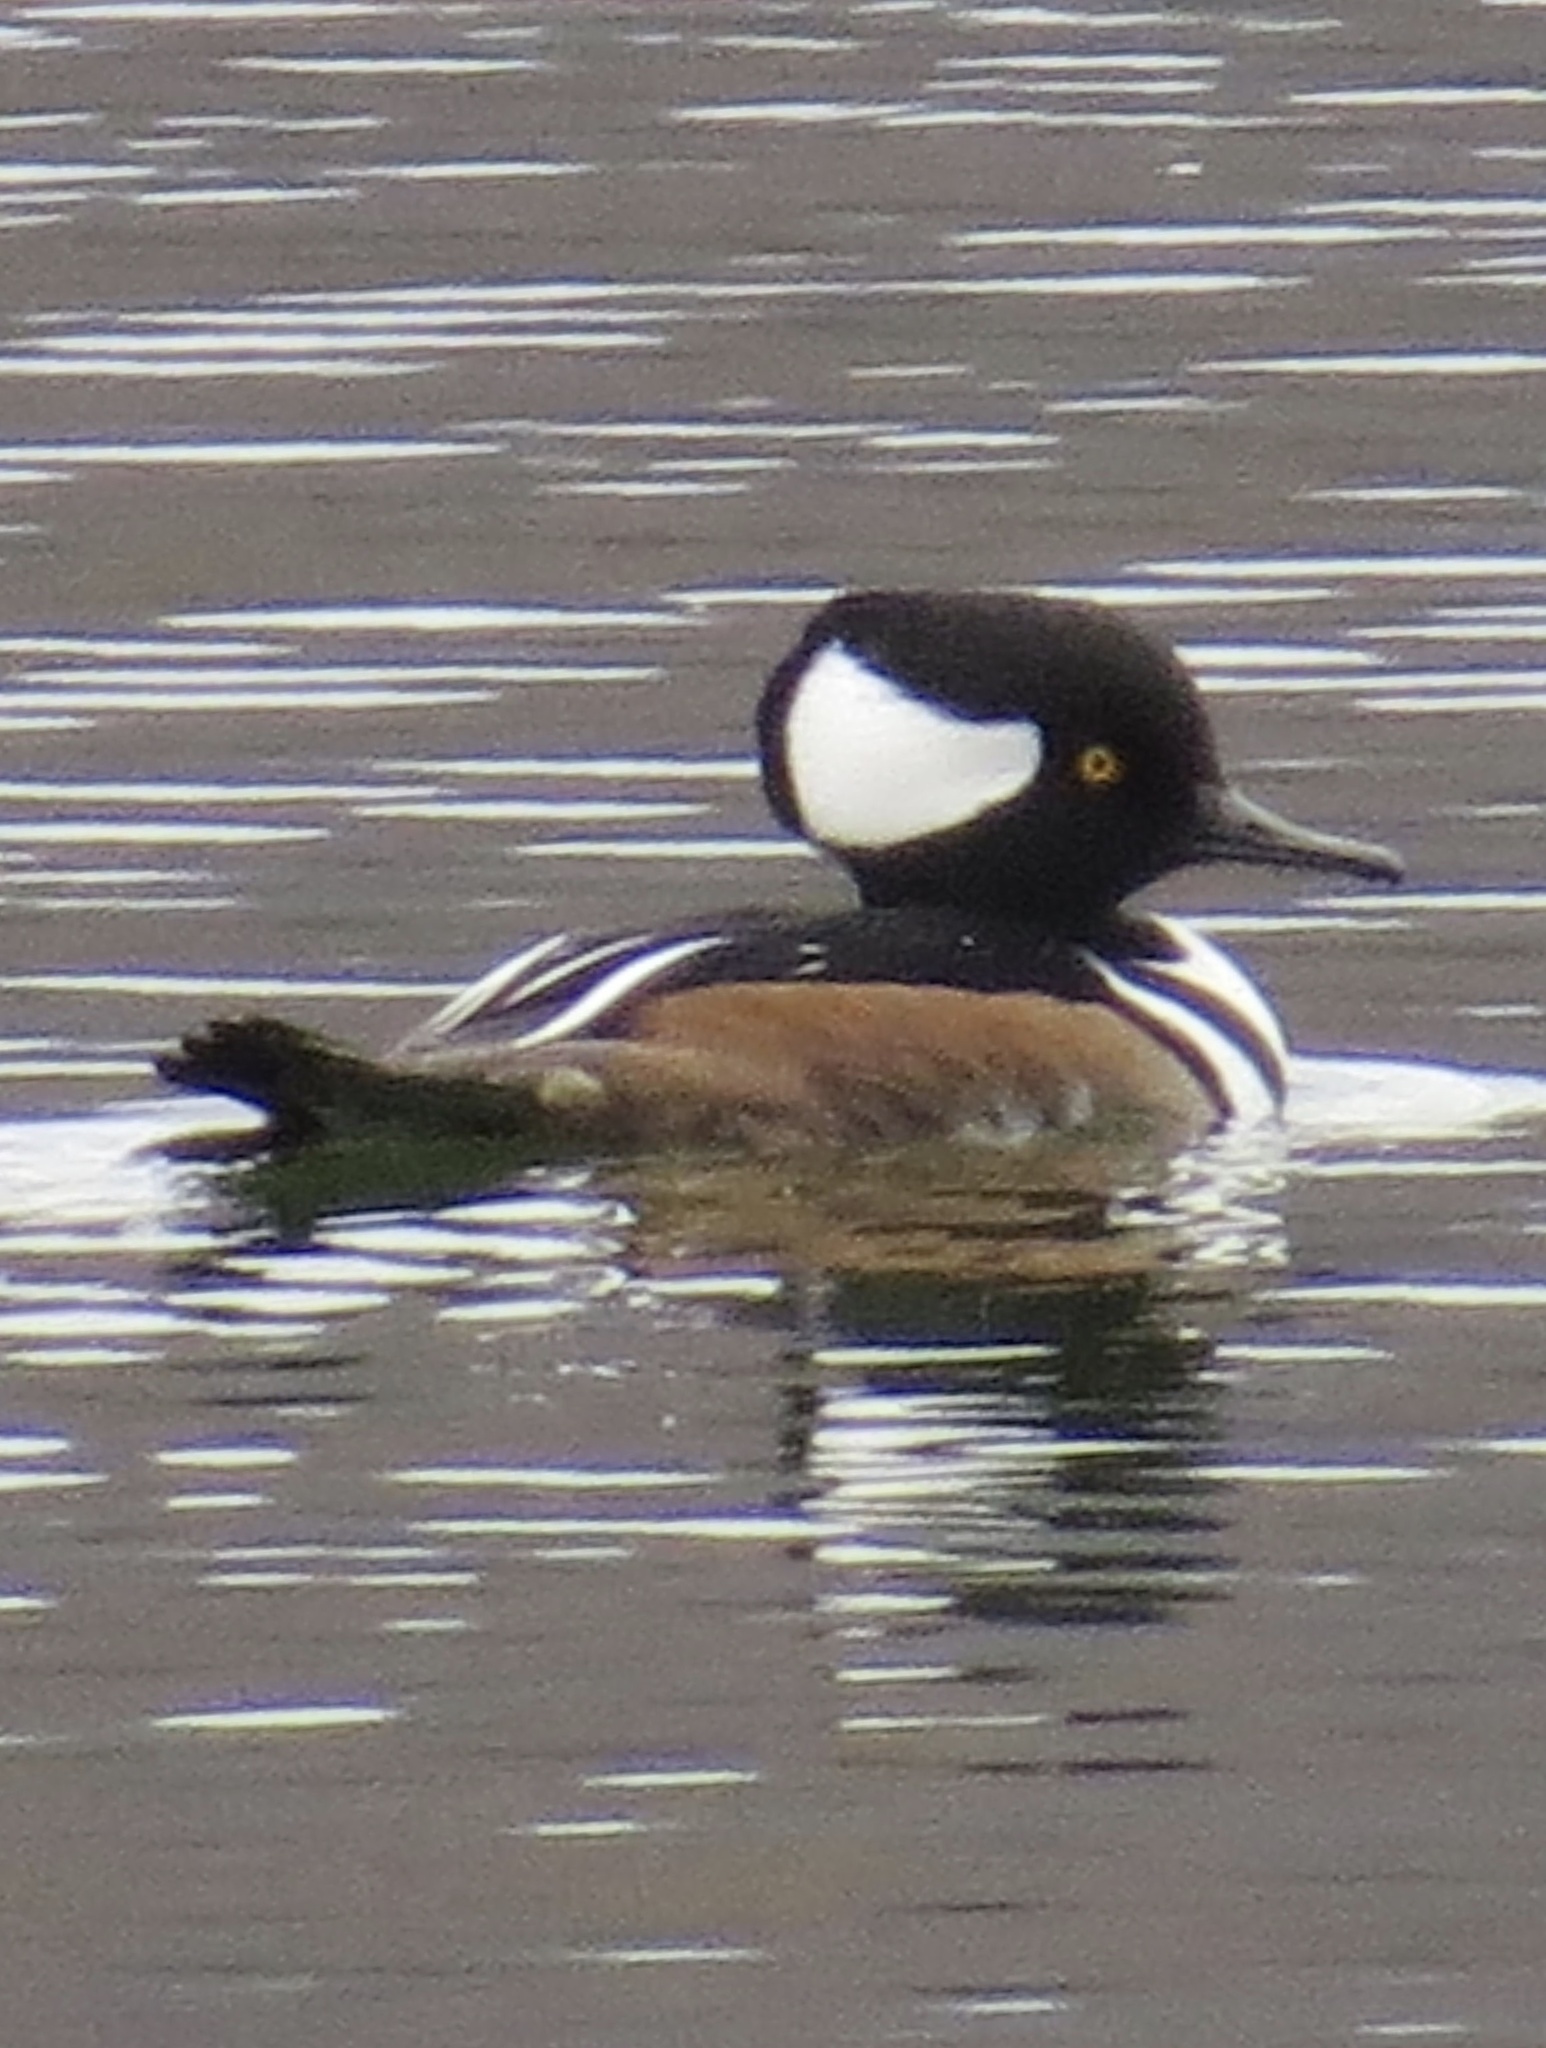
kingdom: Animalia
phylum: Chordata
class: Aves
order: Anseriformes
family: Anatidae
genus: Lophodytes
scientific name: Lophodytes cucullatus
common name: Hooded merganser
